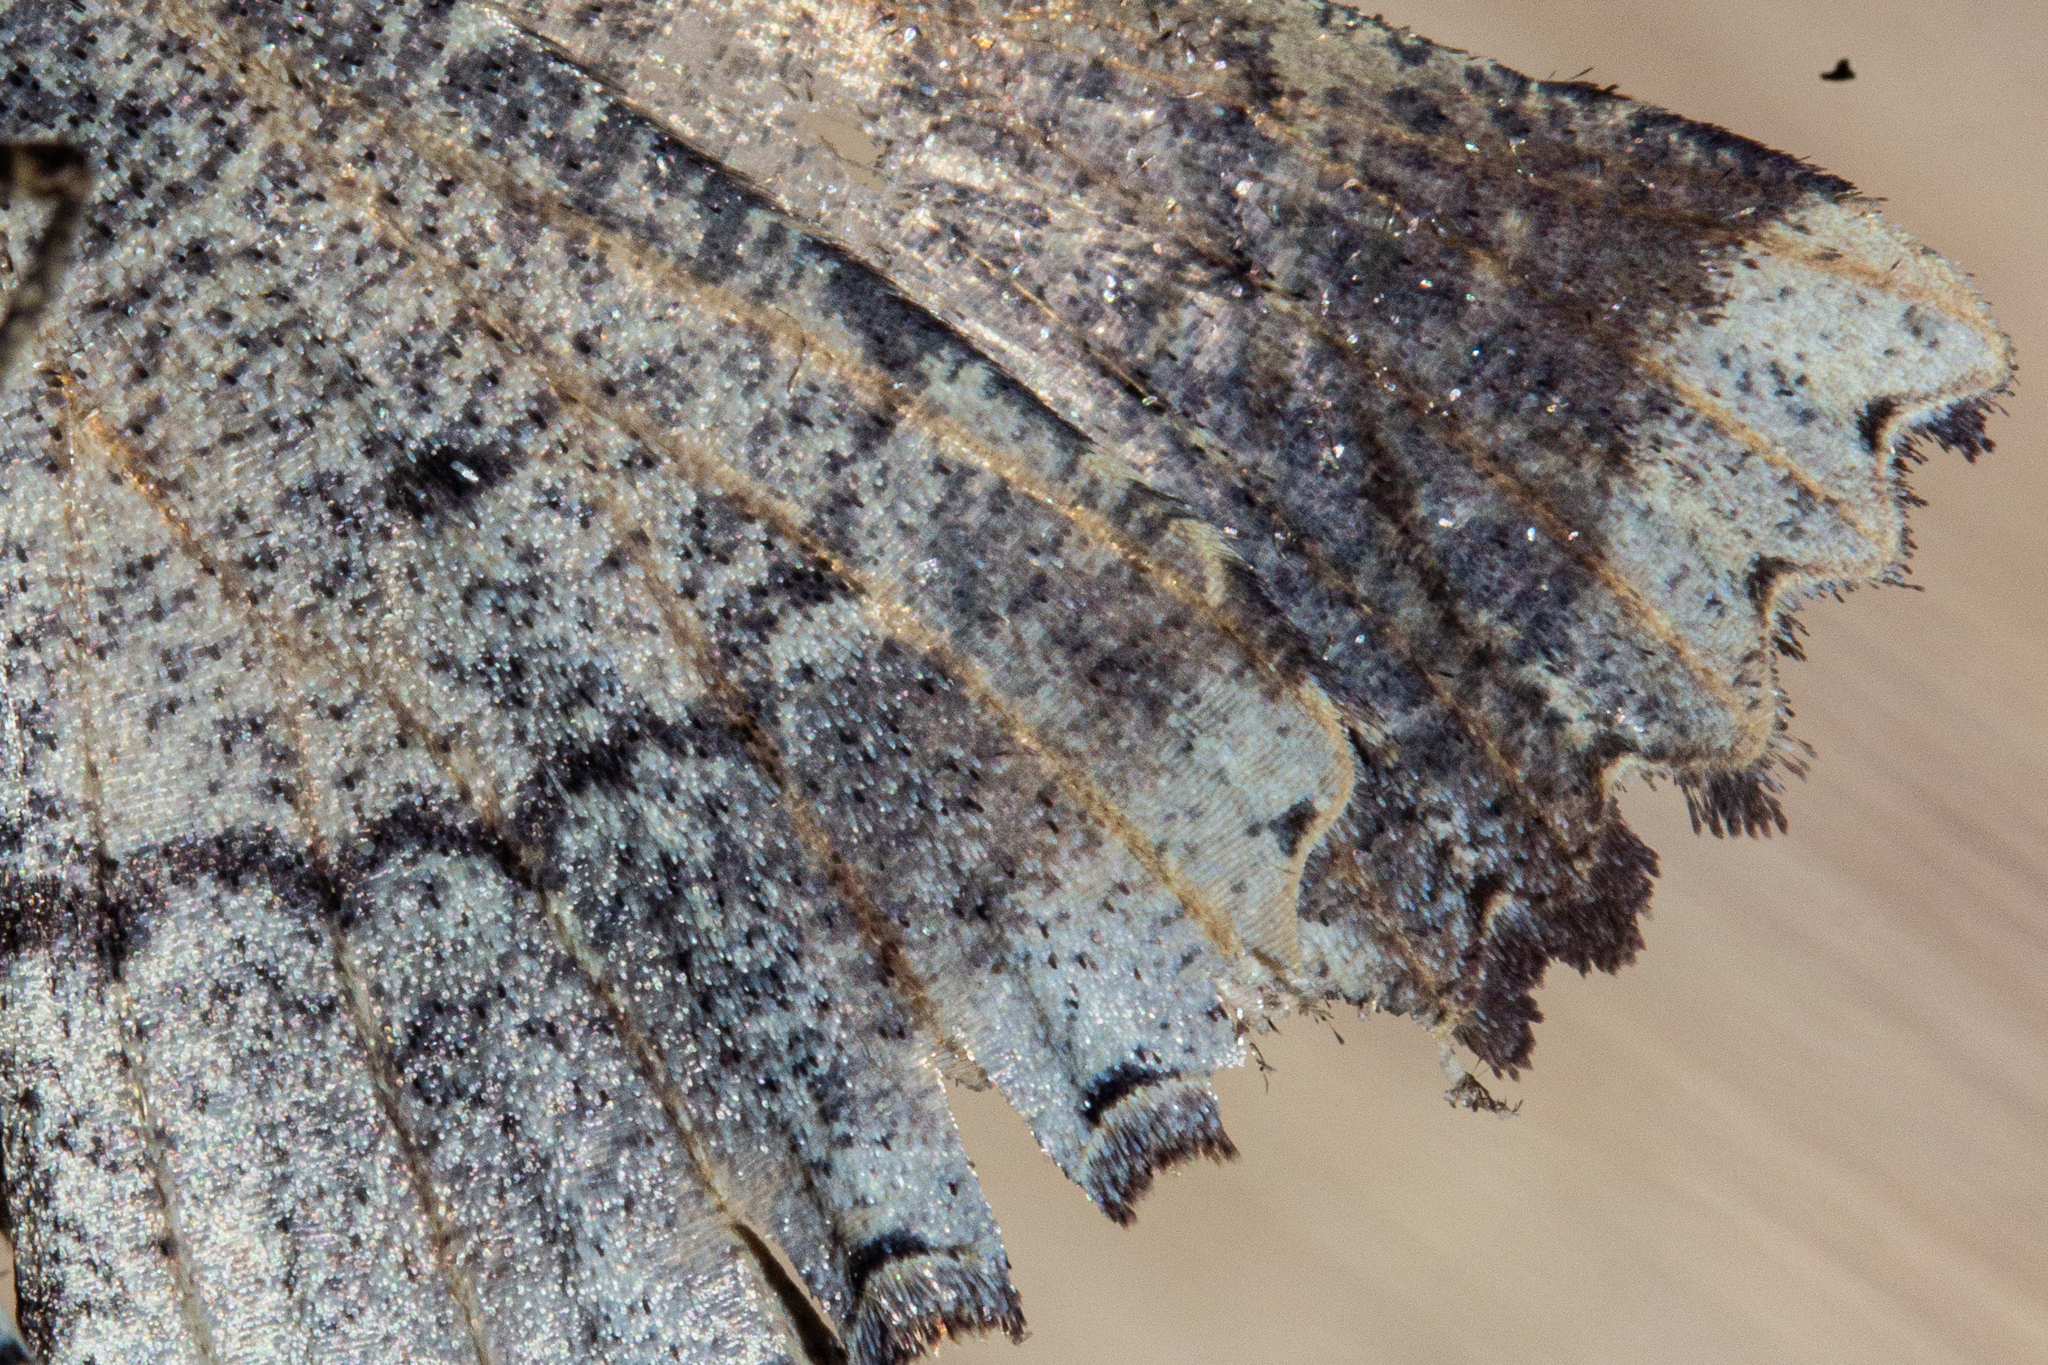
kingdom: Animalia
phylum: Arthropoda
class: Insecta
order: Lepidoptera
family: Geometridae
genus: Gellonia
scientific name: Gellonia pannularia
